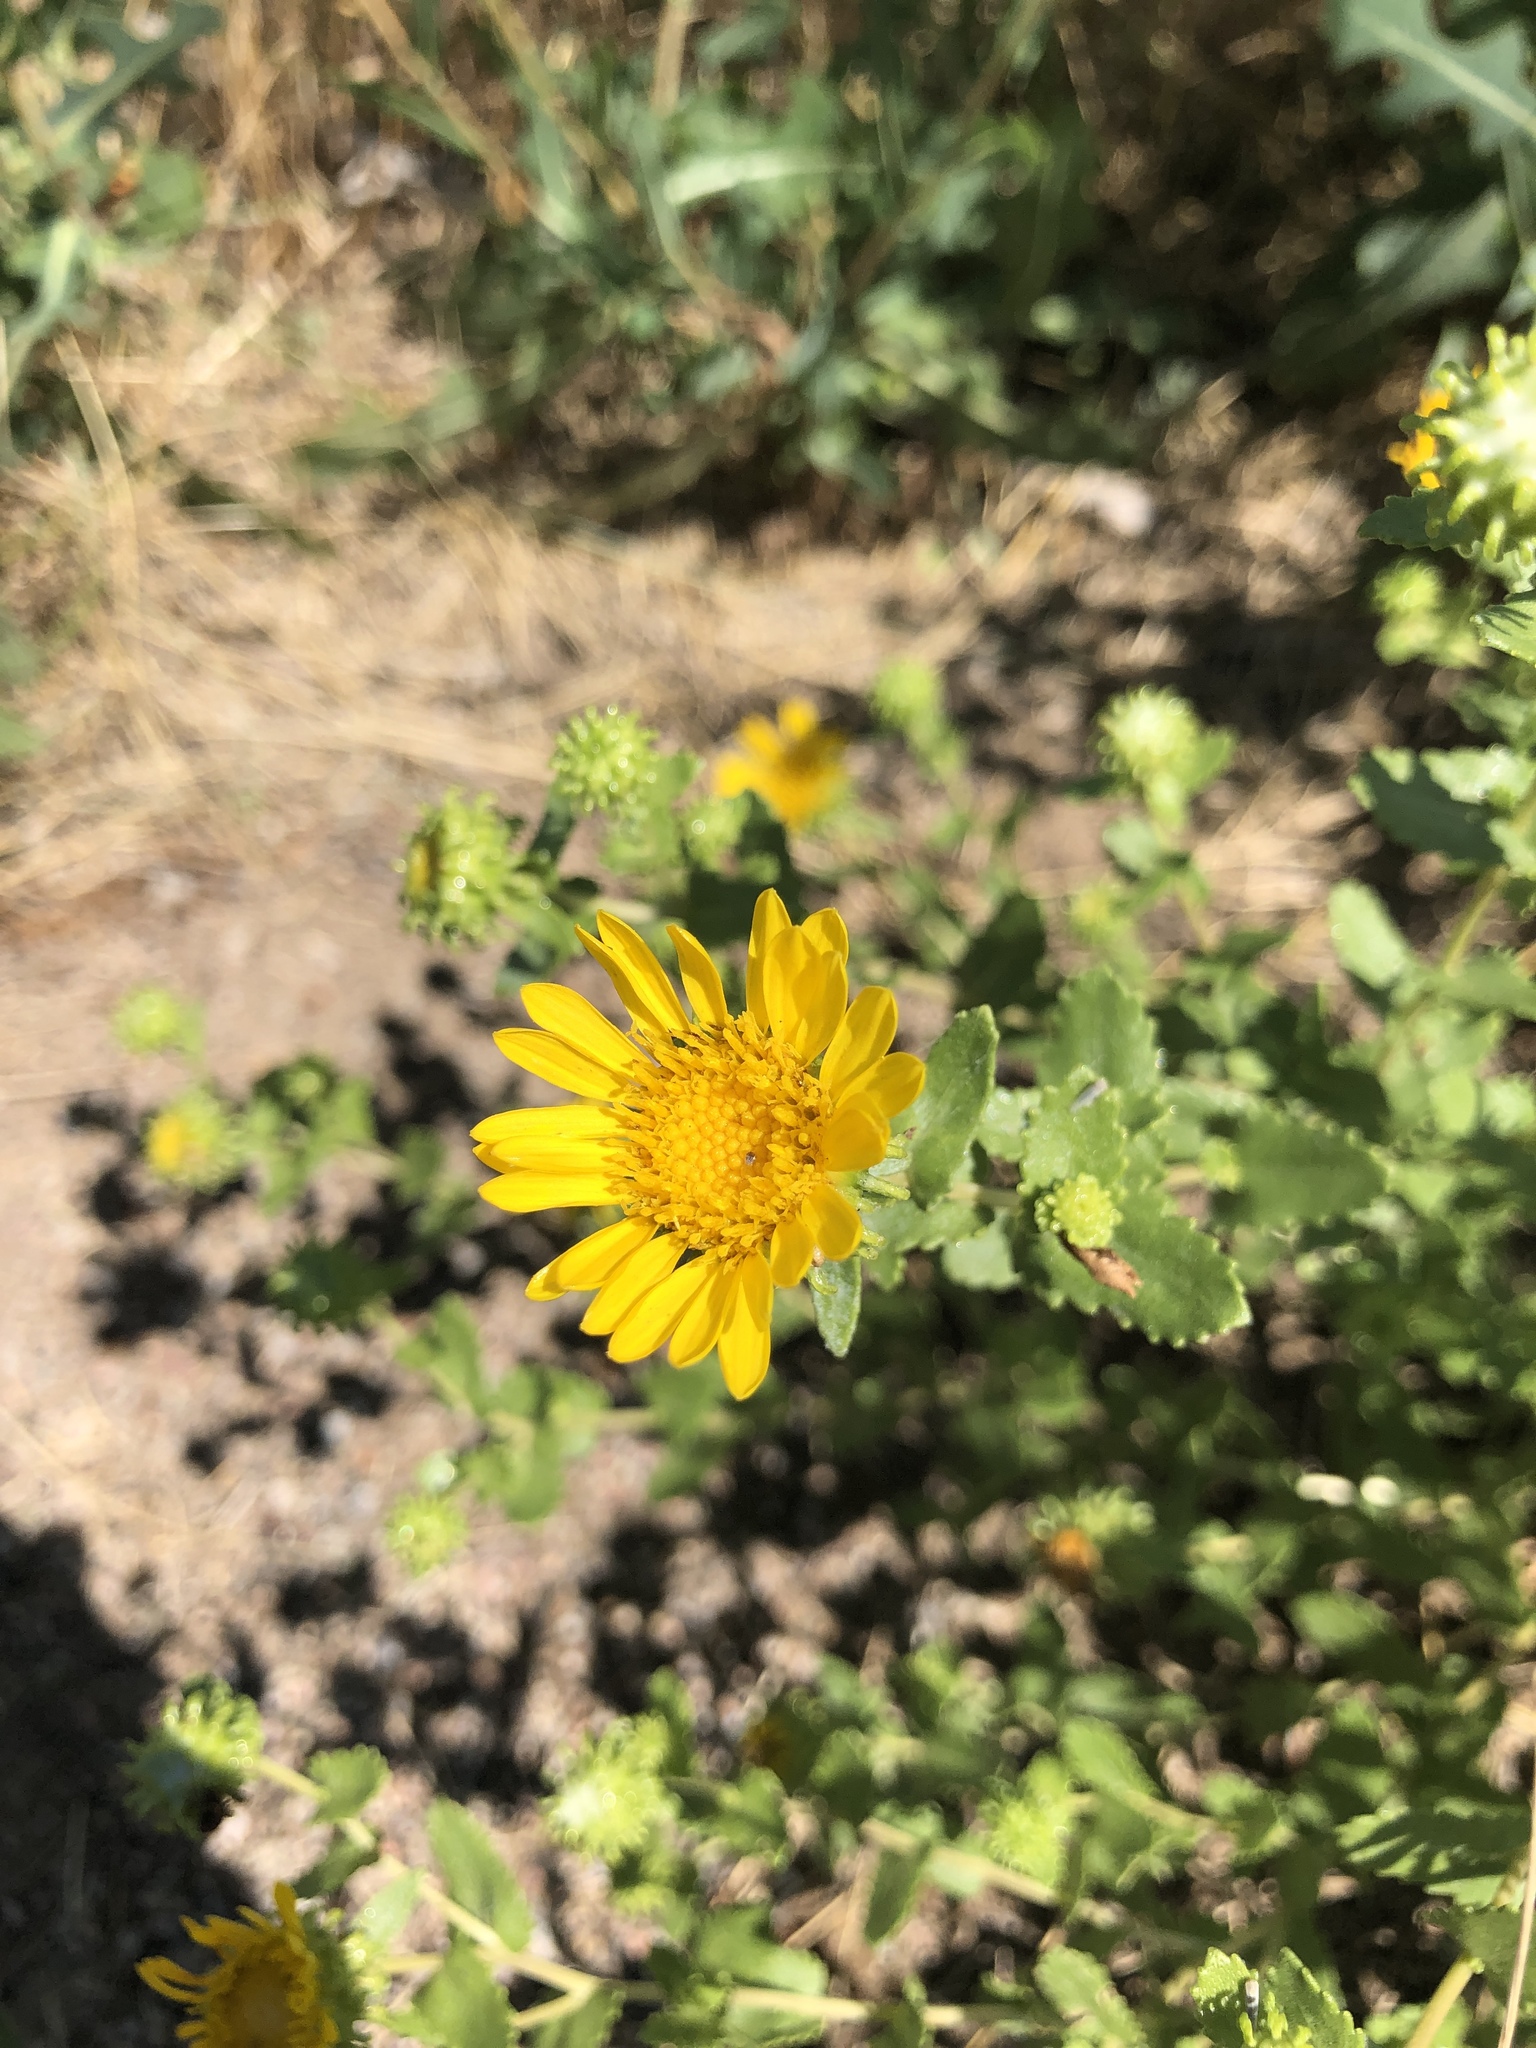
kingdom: Plantae
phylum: Tracheophyta
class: Magnoliopsida
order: Asterales
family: Asteraceae
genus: Grindelia
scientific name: Grindelia squarrosa
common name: Curly-cup gumweed
